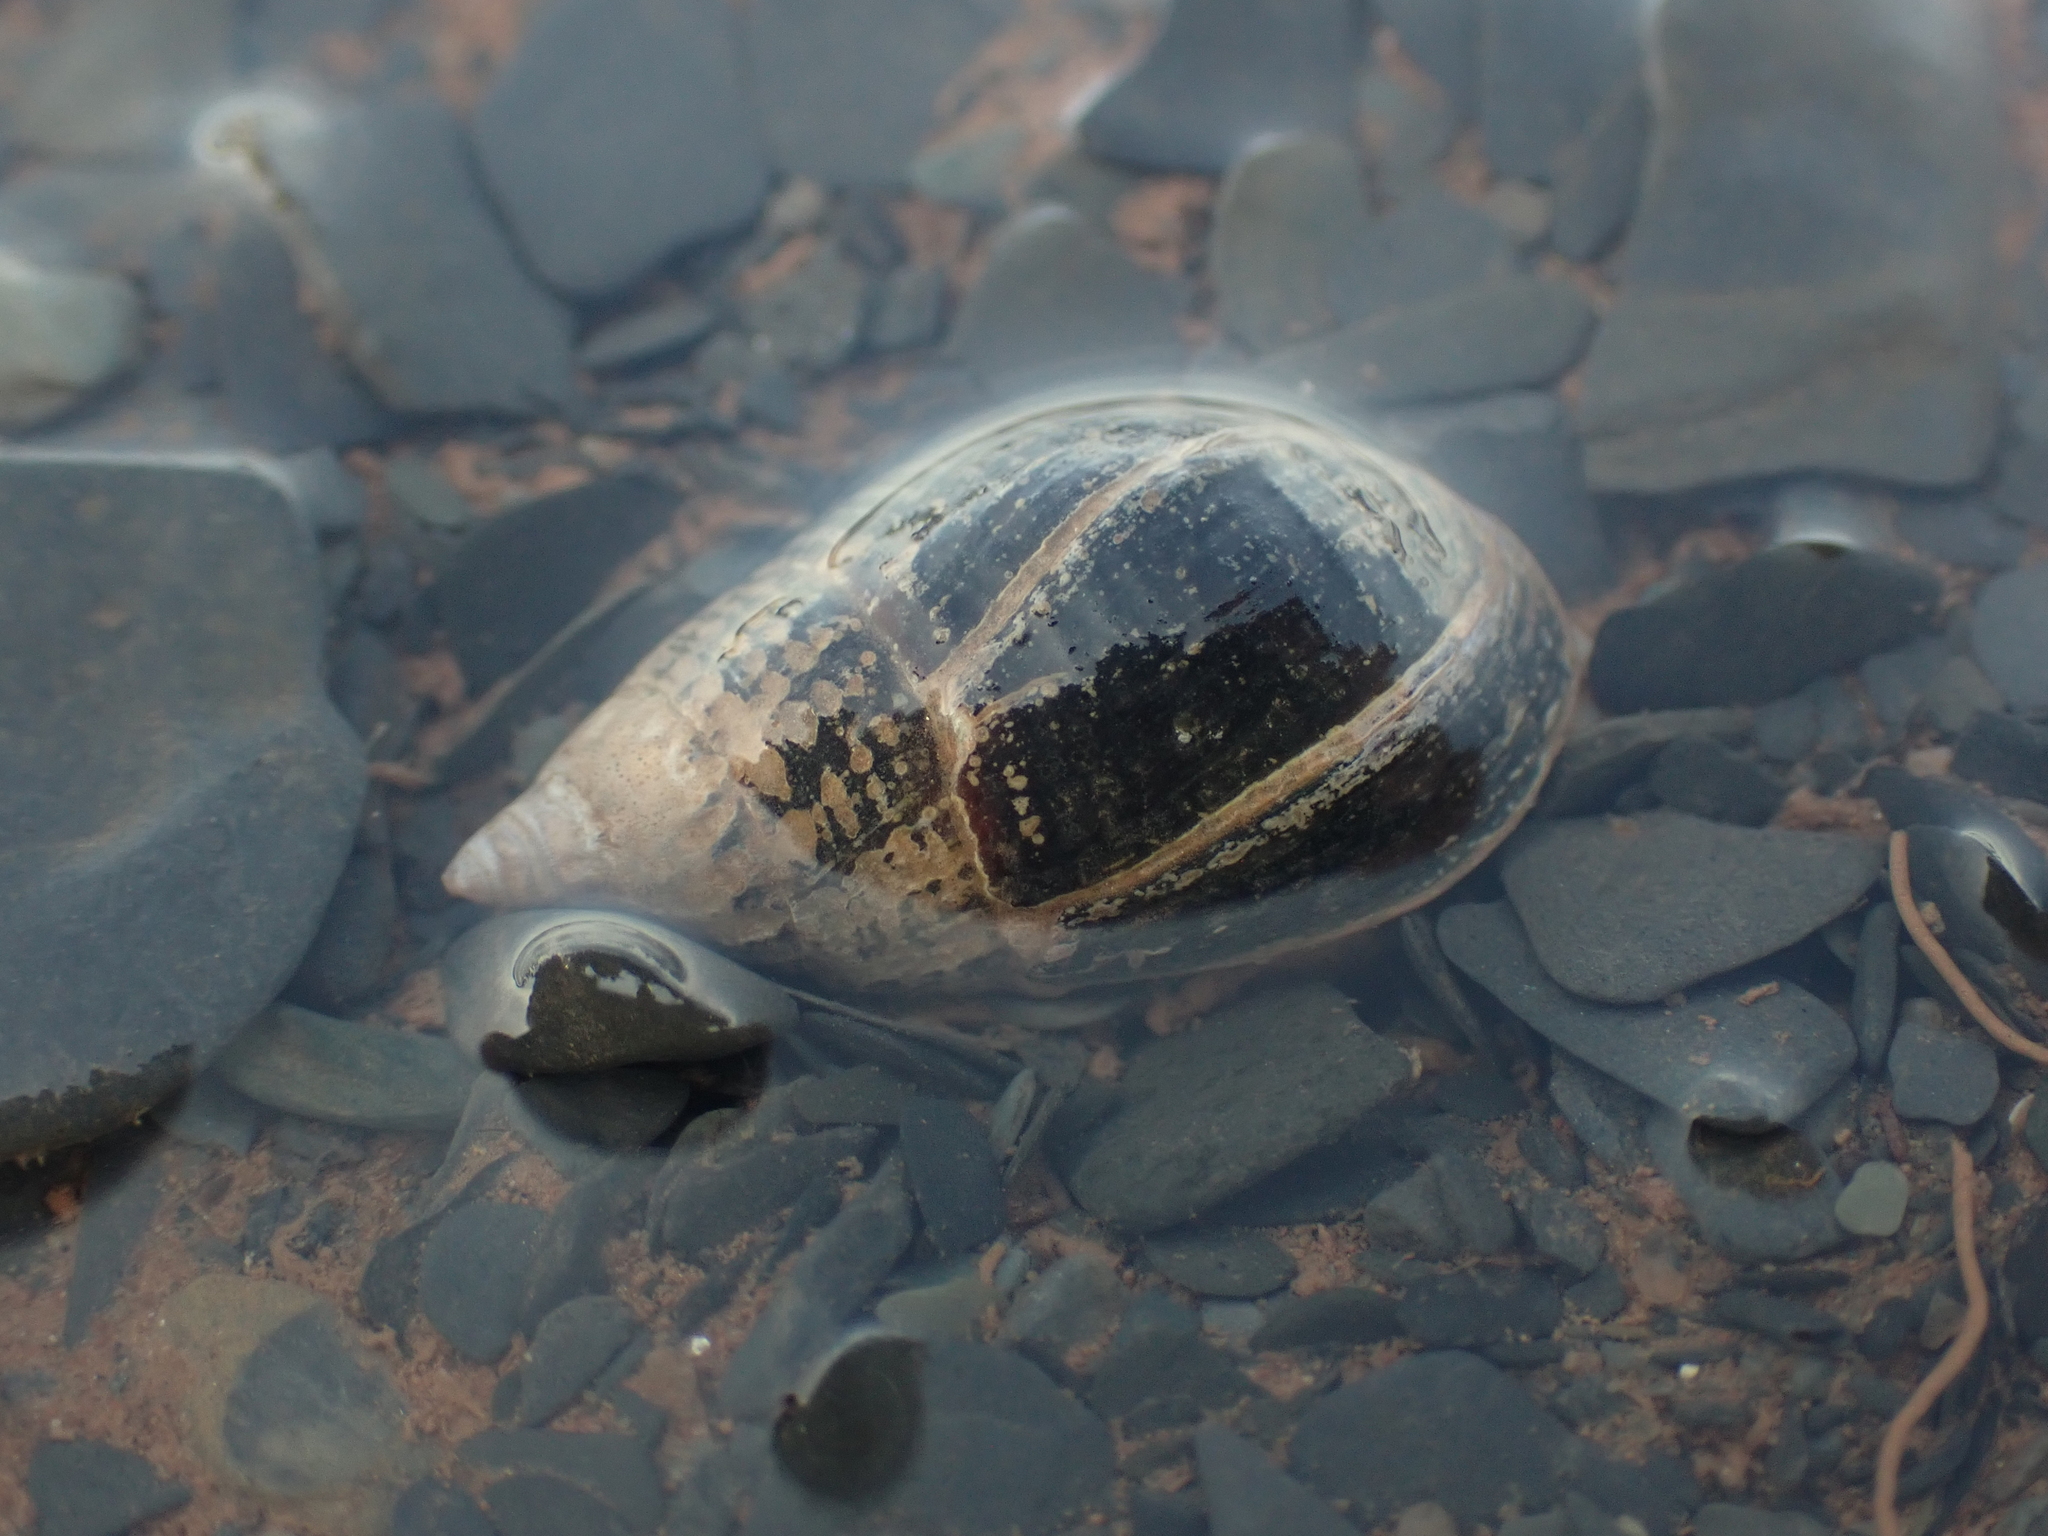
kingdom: Animalia
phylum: Mollusca
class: Gastropoda
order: Neogastropoda
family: Nassariidae
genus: Ilyanassa
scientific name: Ilyanassa obsoleta
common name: Eastern mudsnail
